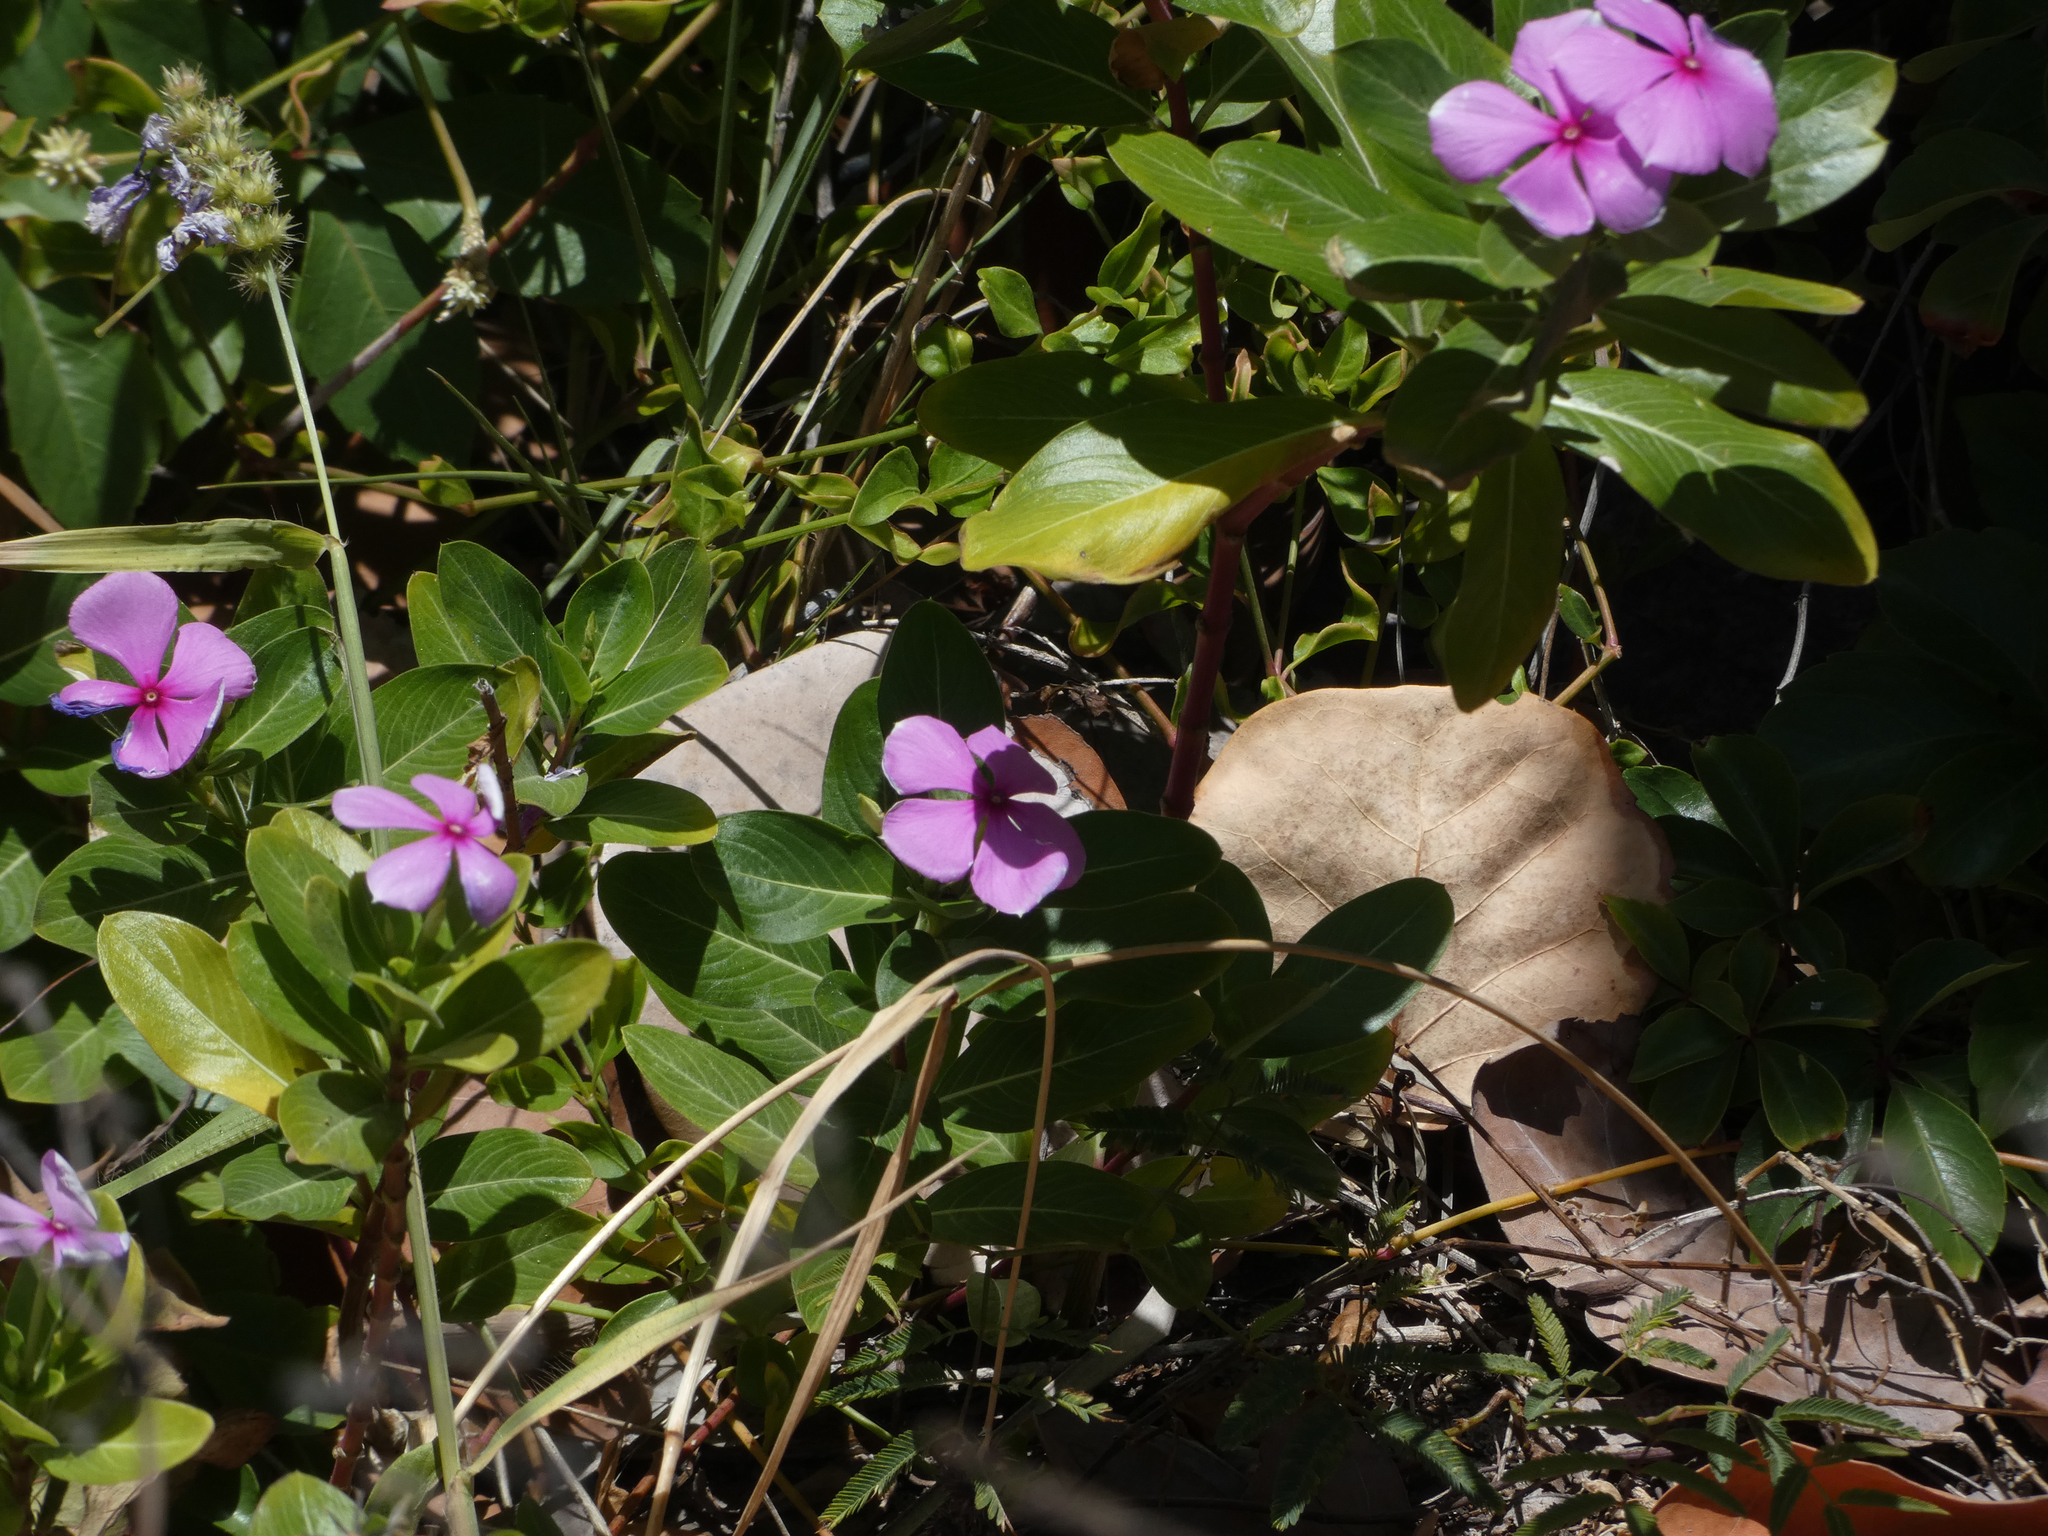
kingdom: Plantae
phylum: Tracheophyta
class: Magnoliopsida
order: Gentianales
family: Apocynaceae
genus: Catharanthus
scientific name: Catharanthus roseus
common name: Madagascar periwinkle
